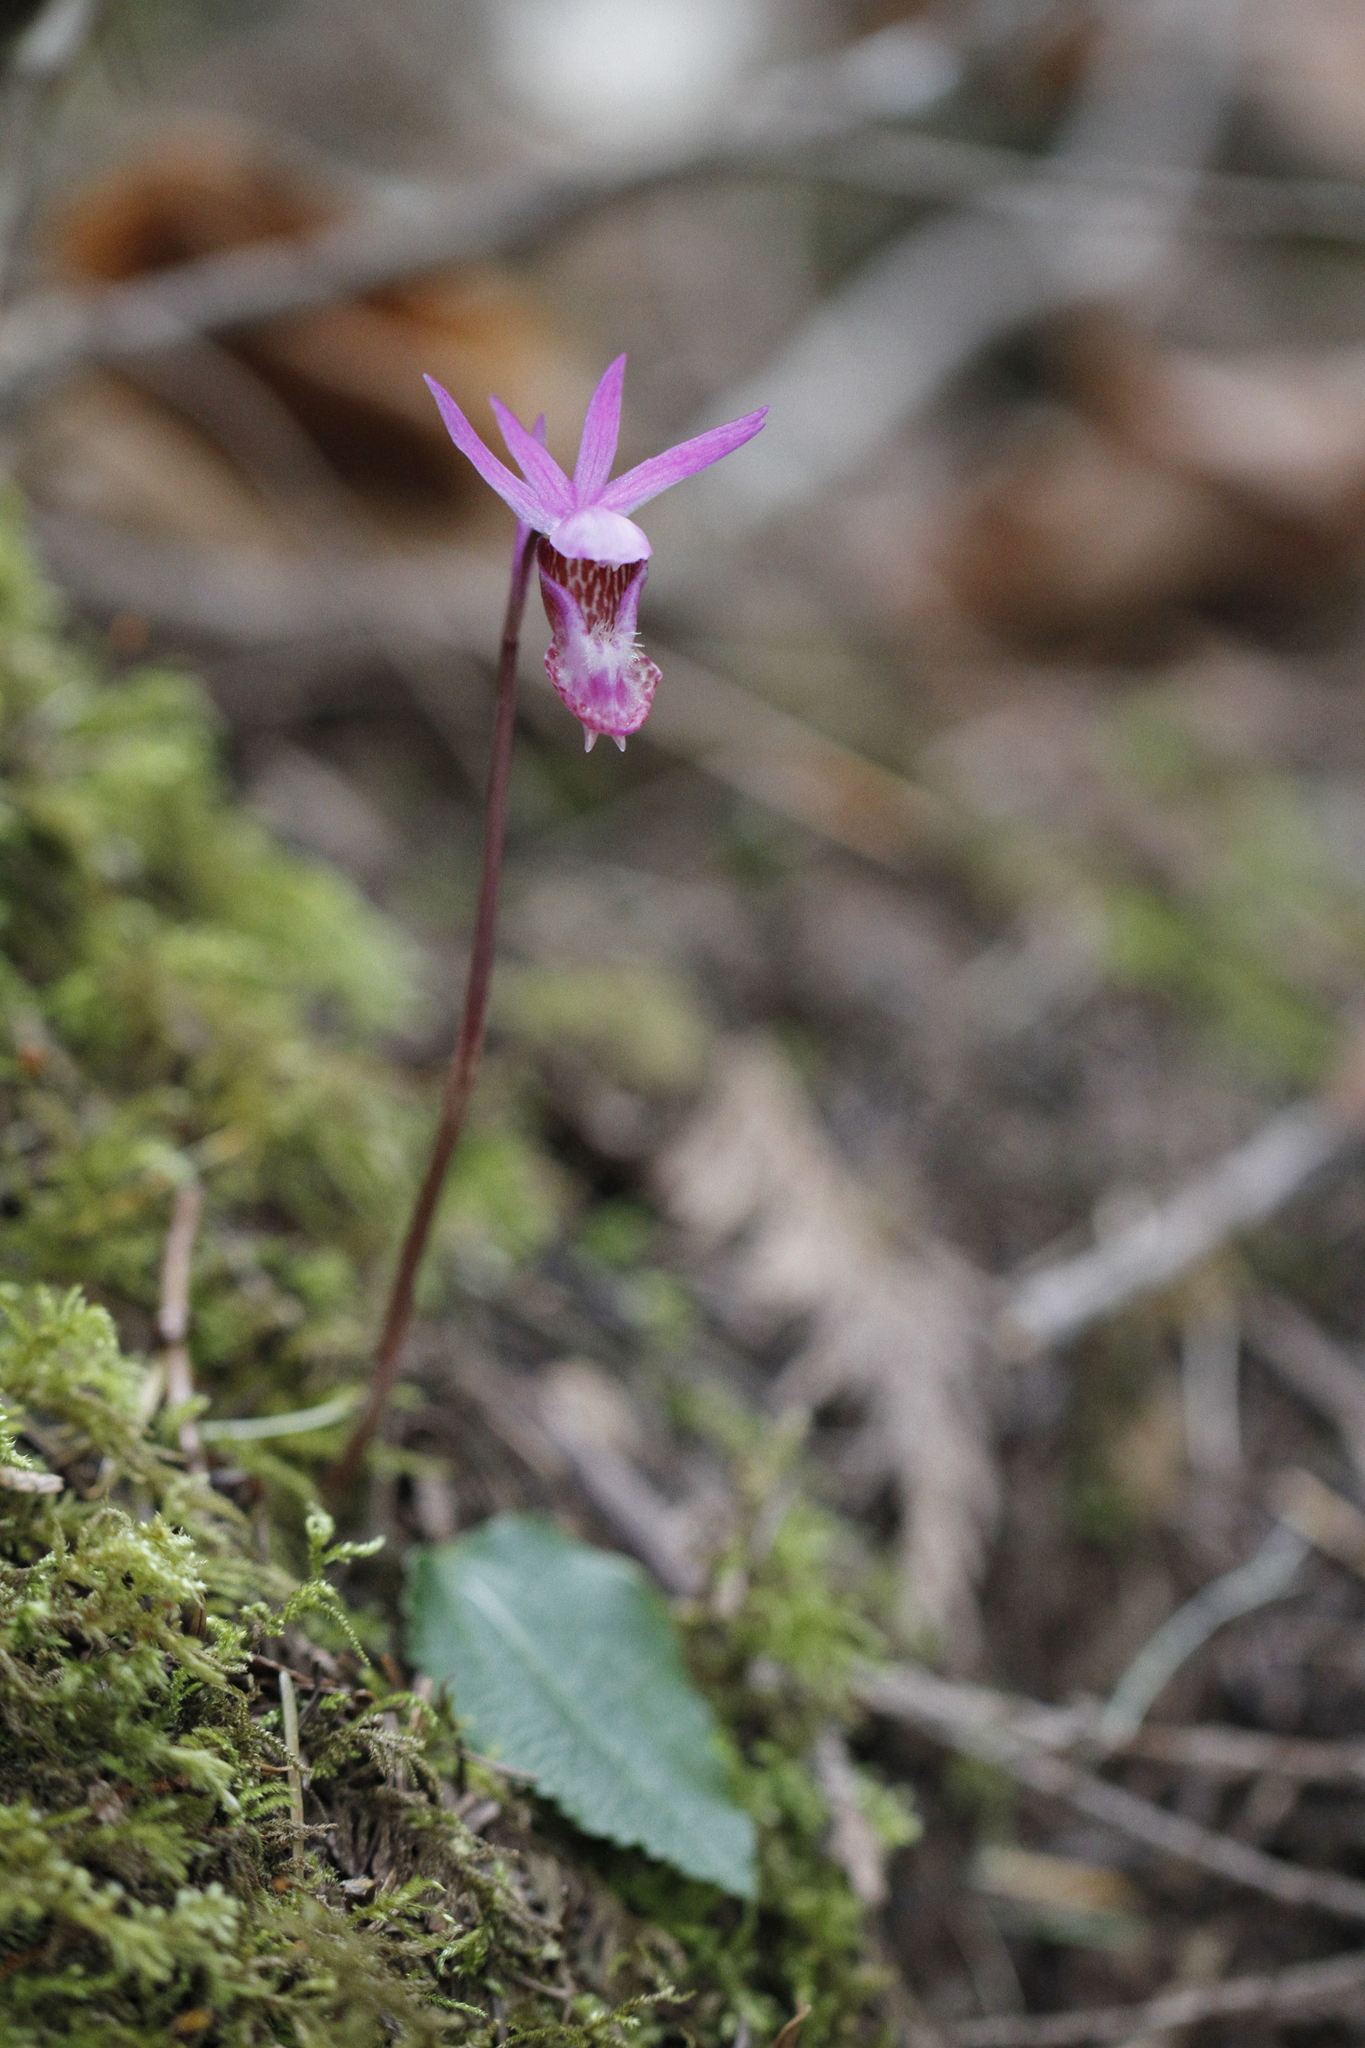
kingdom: Plantae
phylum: Tracheophyta
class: Liliopsida
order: Asparagales
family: Orchidaceae
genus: Calypso
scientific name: Calypso bulbosa
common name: Calypso
